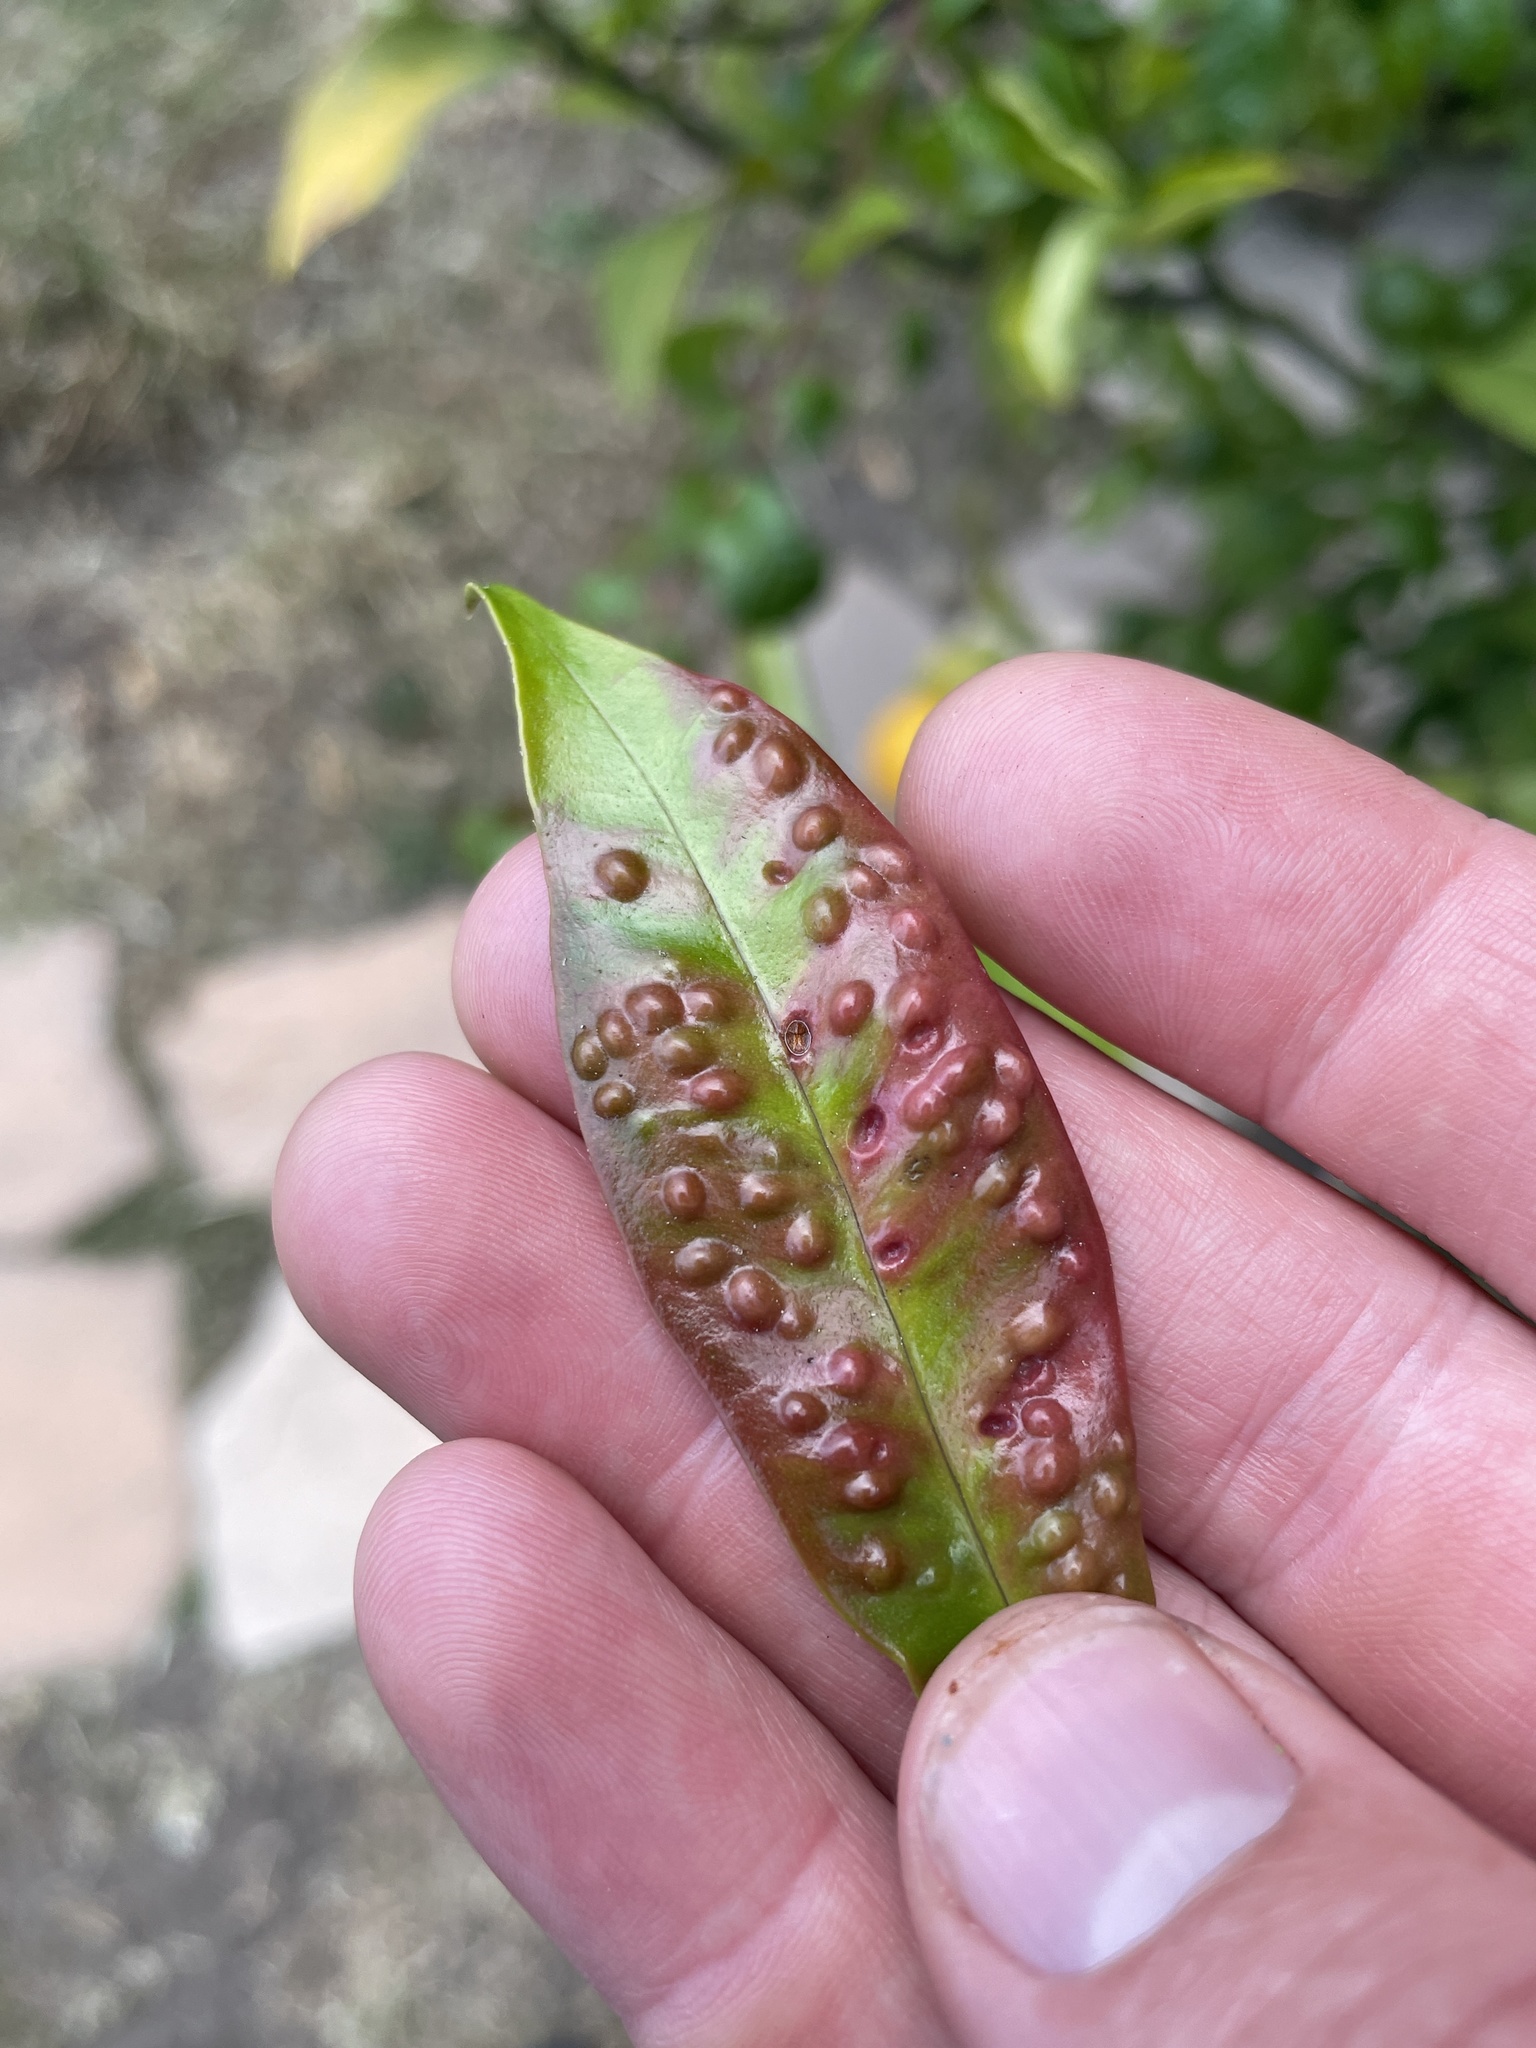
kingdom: Animalia
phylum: Arthropoda
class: Insecta
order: Hemiptera
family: Triozidae
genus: Trioza
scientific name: Trioza adventicia
